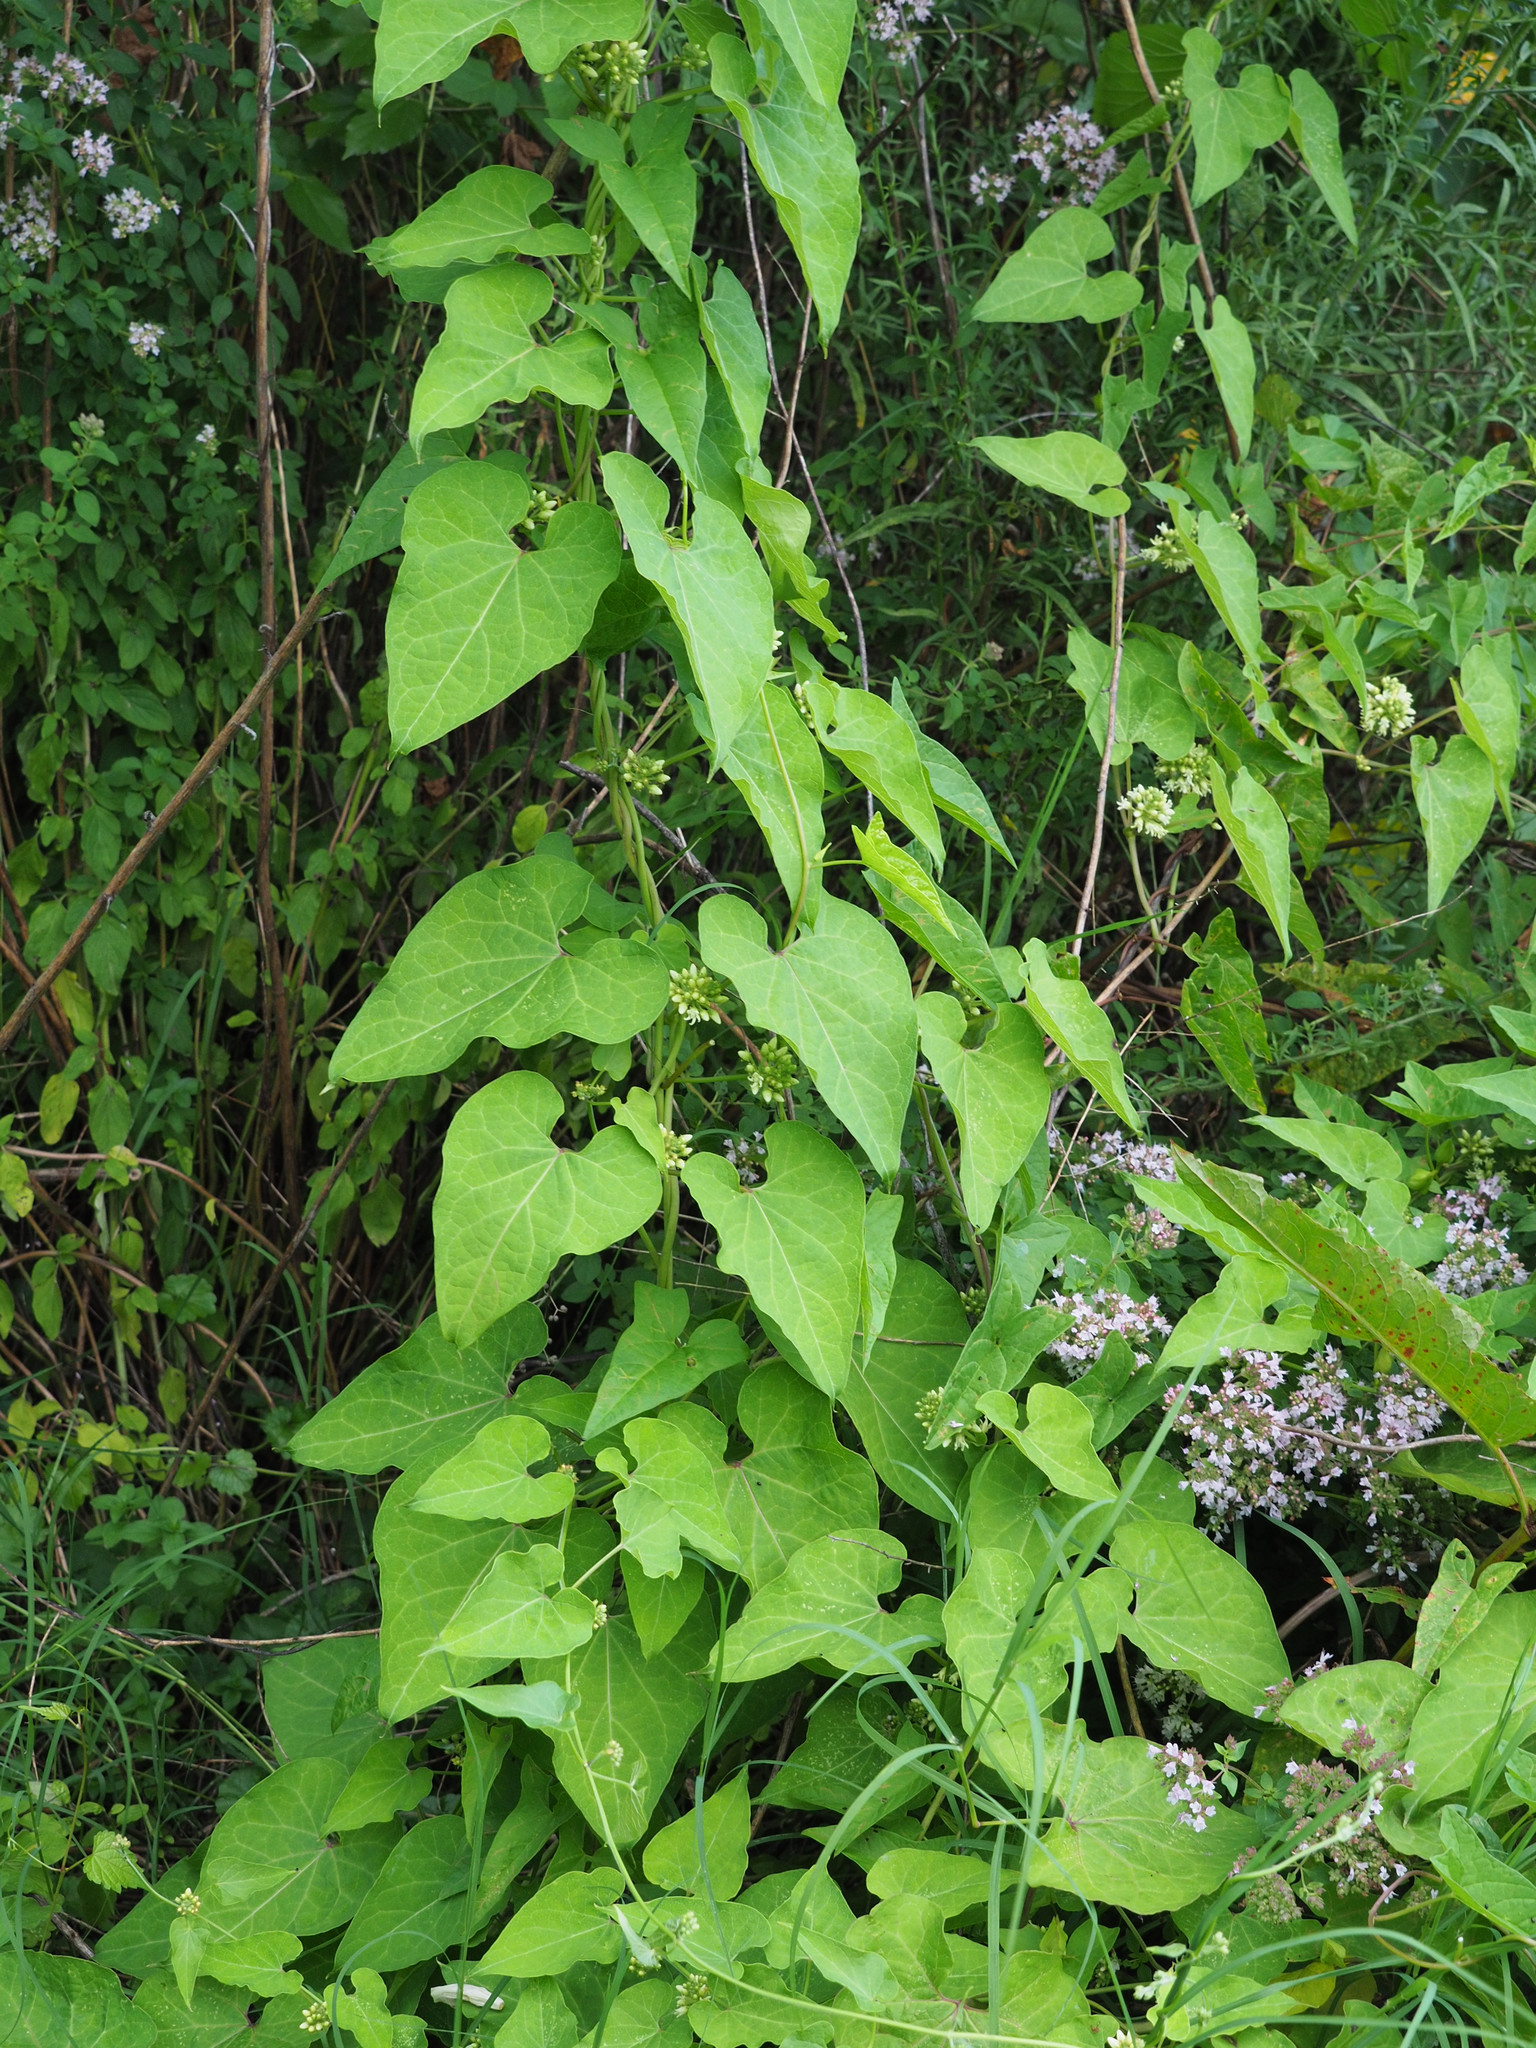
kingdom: Plantae
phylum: Tracheophyta
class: Magnoliopsida
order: Gentianales
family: Apocynaceae
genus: Cynanchum
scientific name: Cynanchum laeve
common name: Sandvine
